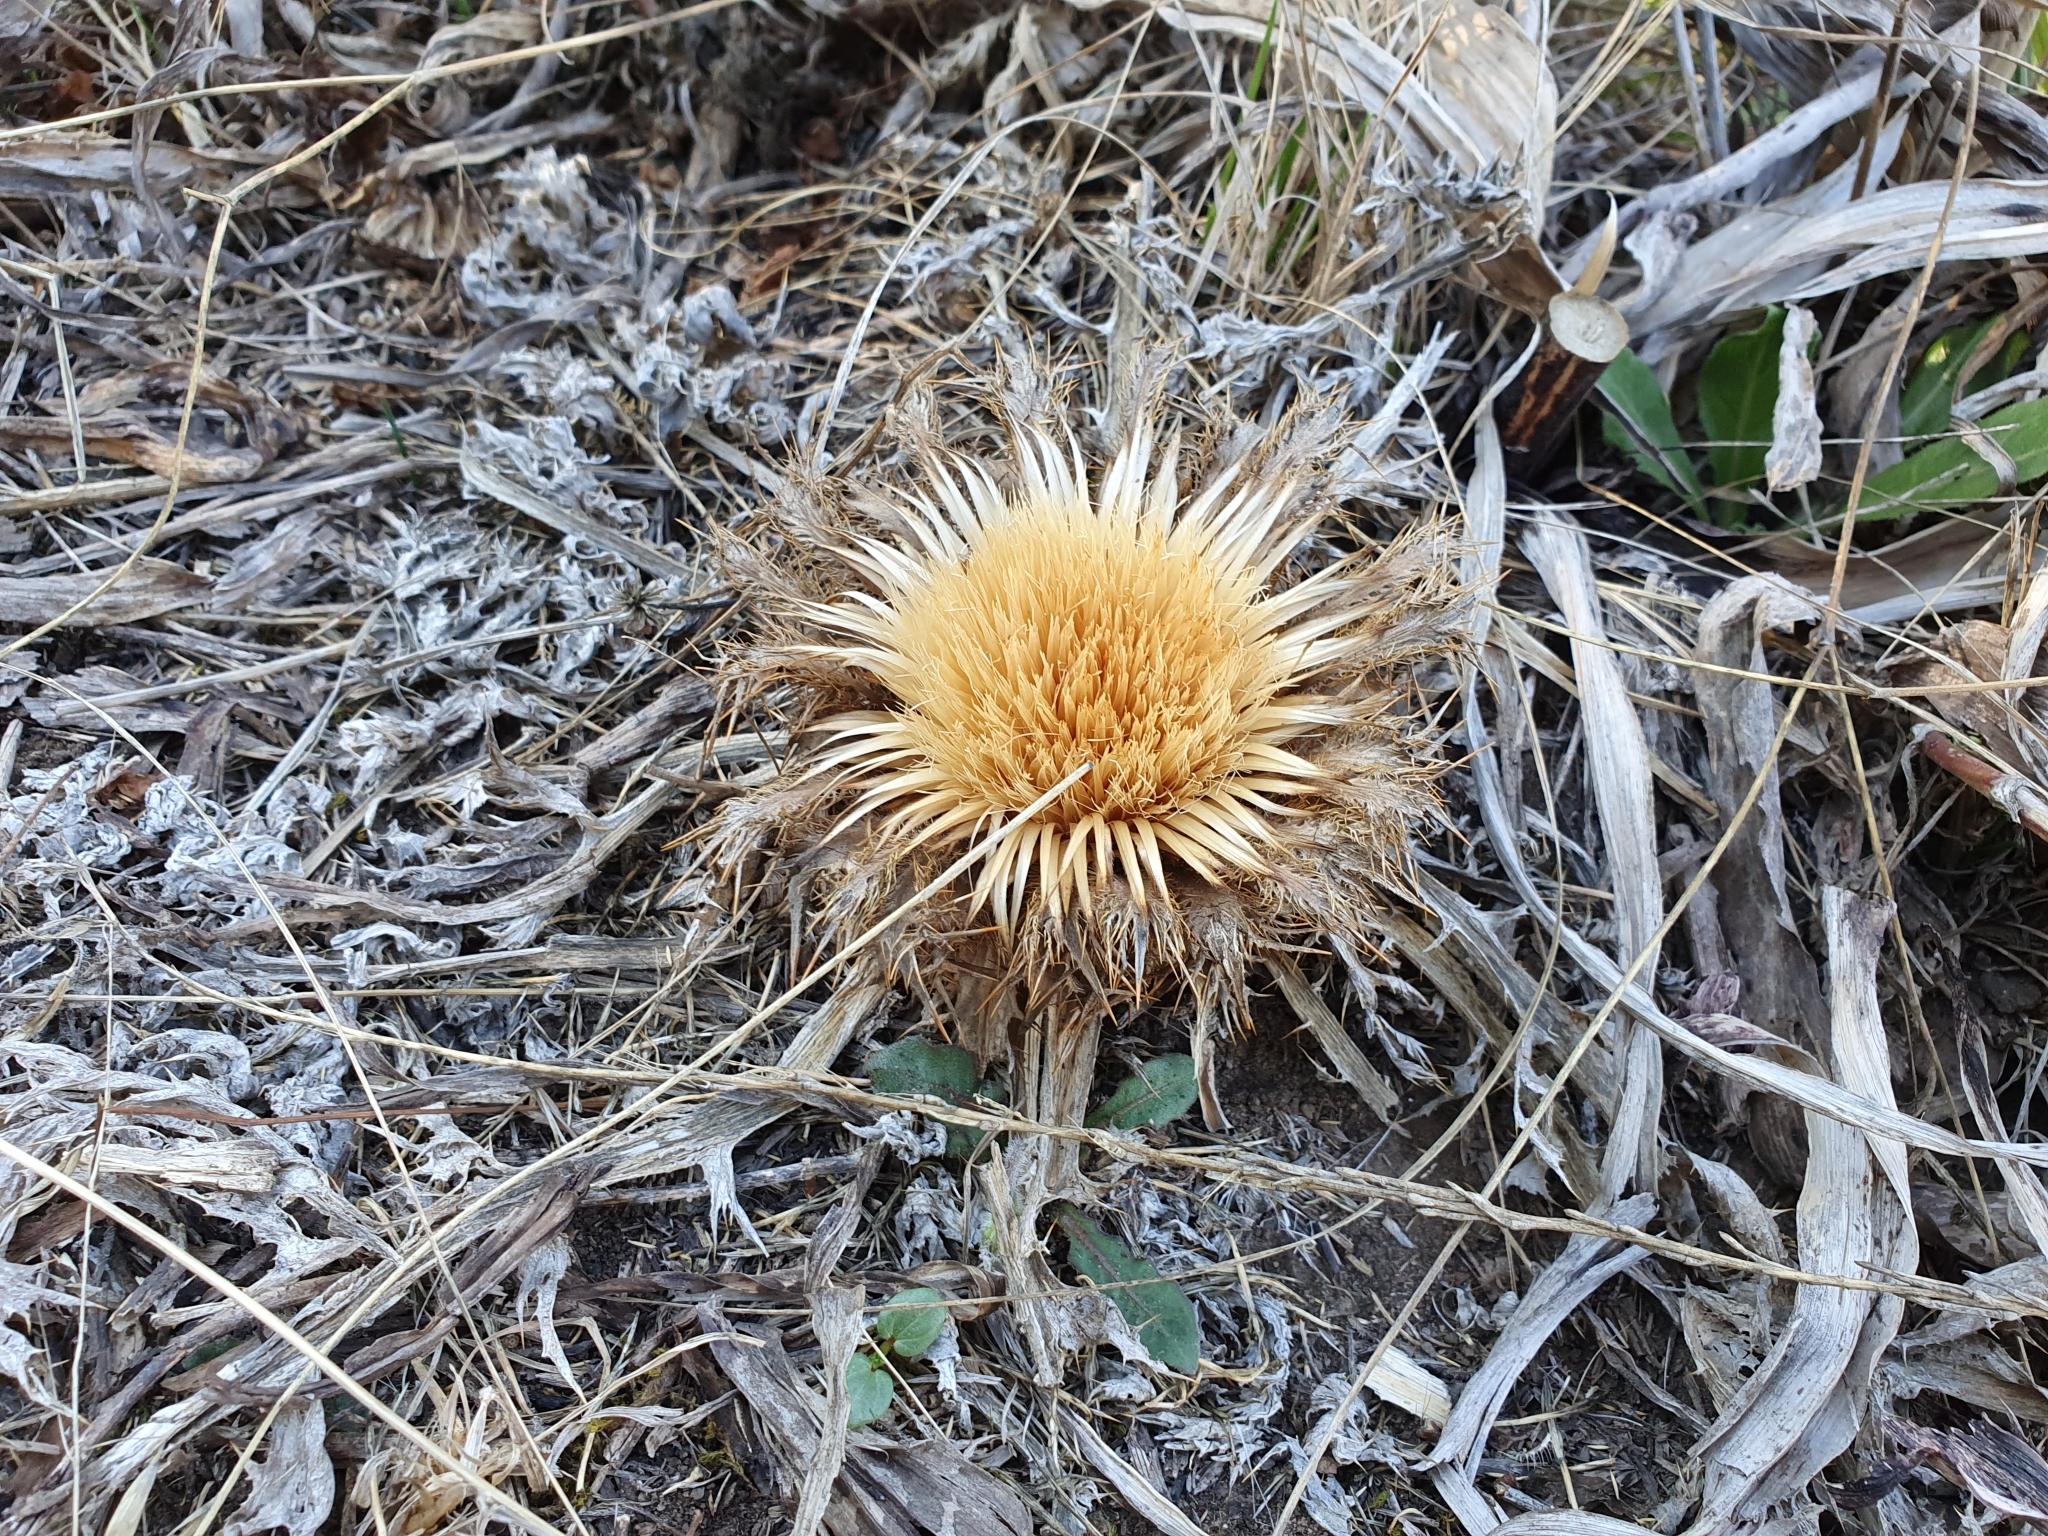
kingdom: Plantae
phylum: Tracheophyta
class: Magnoliopsida
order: Asterales
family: Asteraceae
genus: Chamaeleon
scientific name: Chamaeleon gummifer
